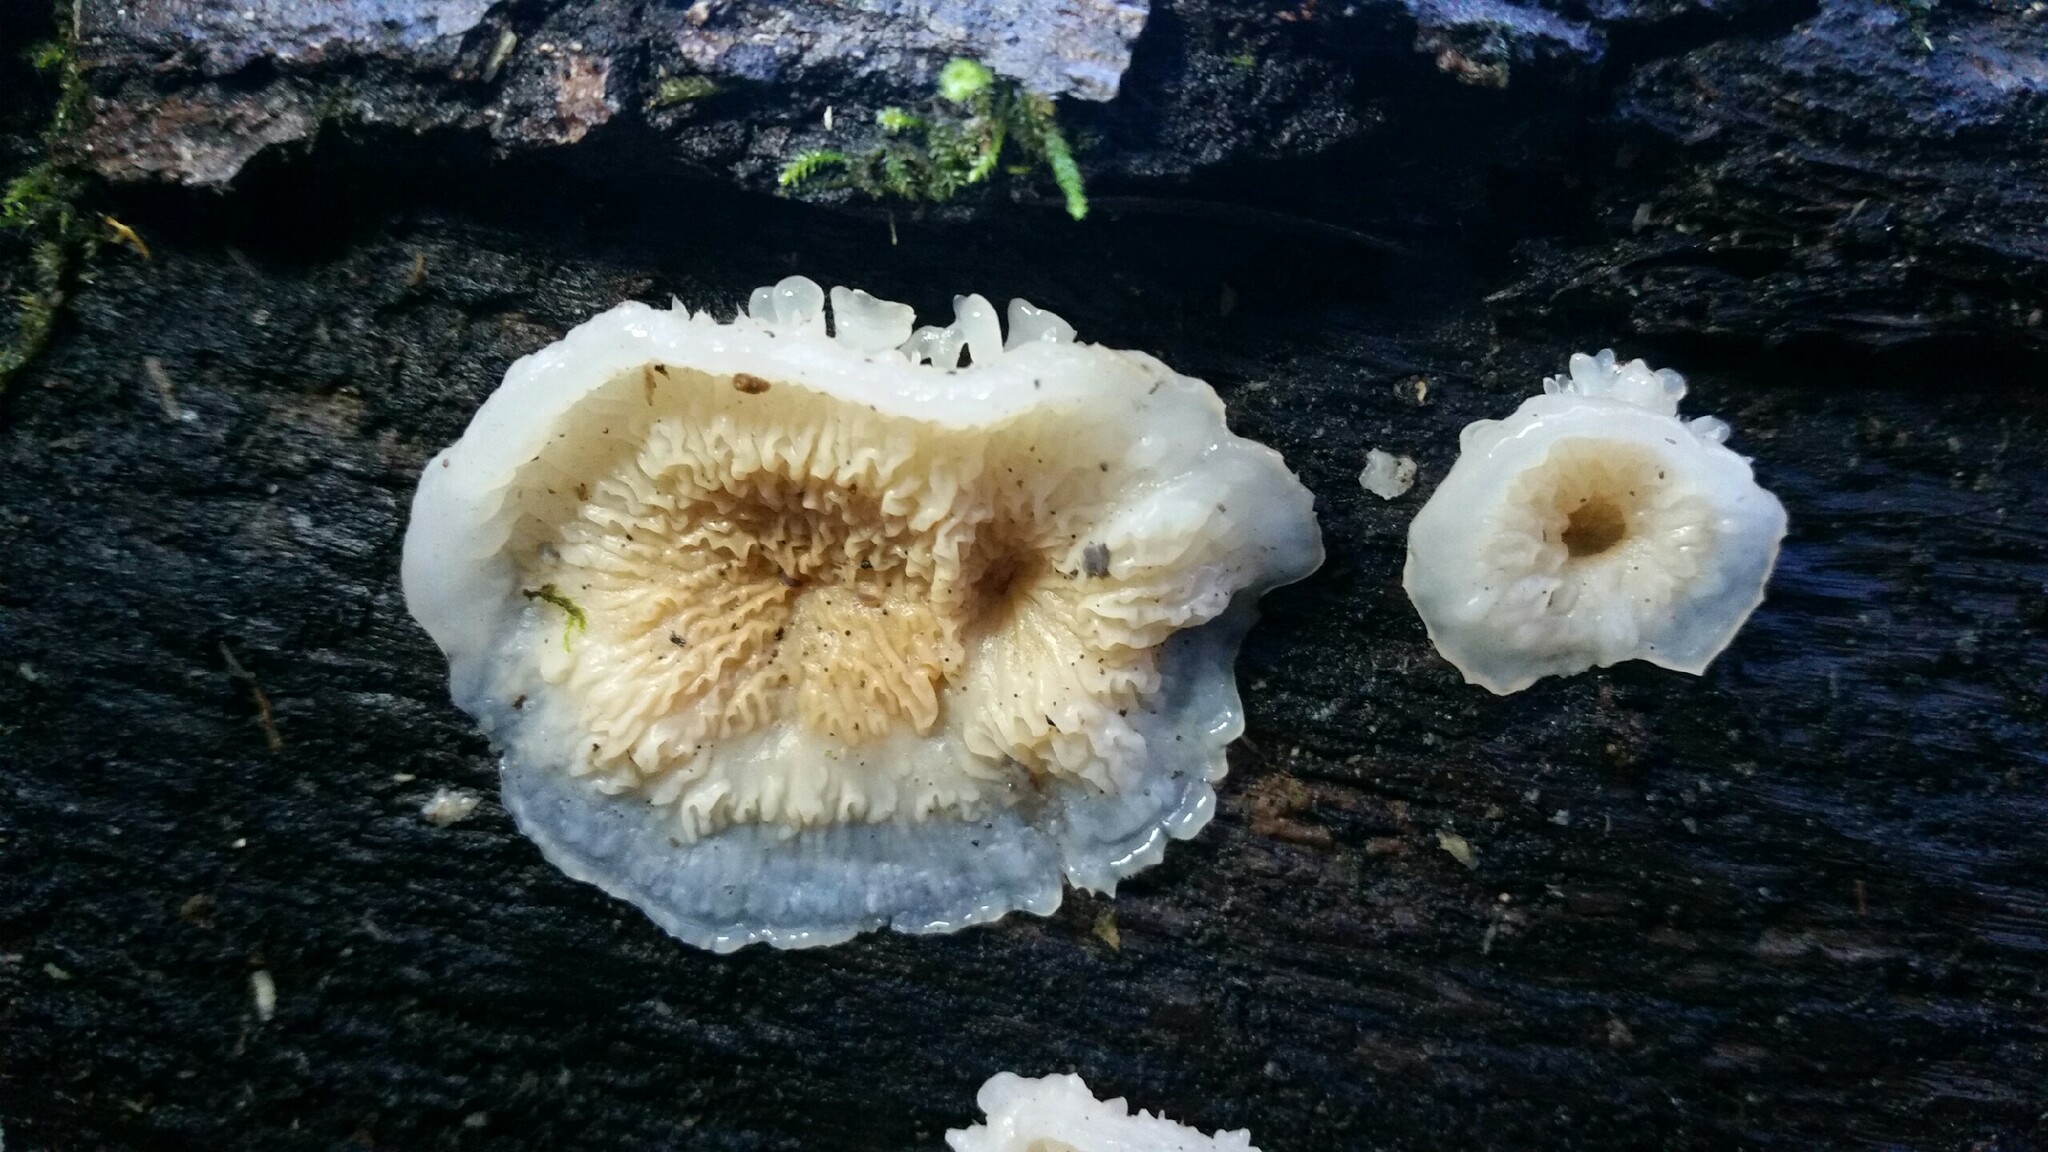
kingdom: Fungi
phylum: Basidiomycota
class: Agaricomycetes
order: Polyporales
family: Meruliaceae
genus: Phlebia
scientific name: Phlebia tremellosa
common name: Jelly rot
